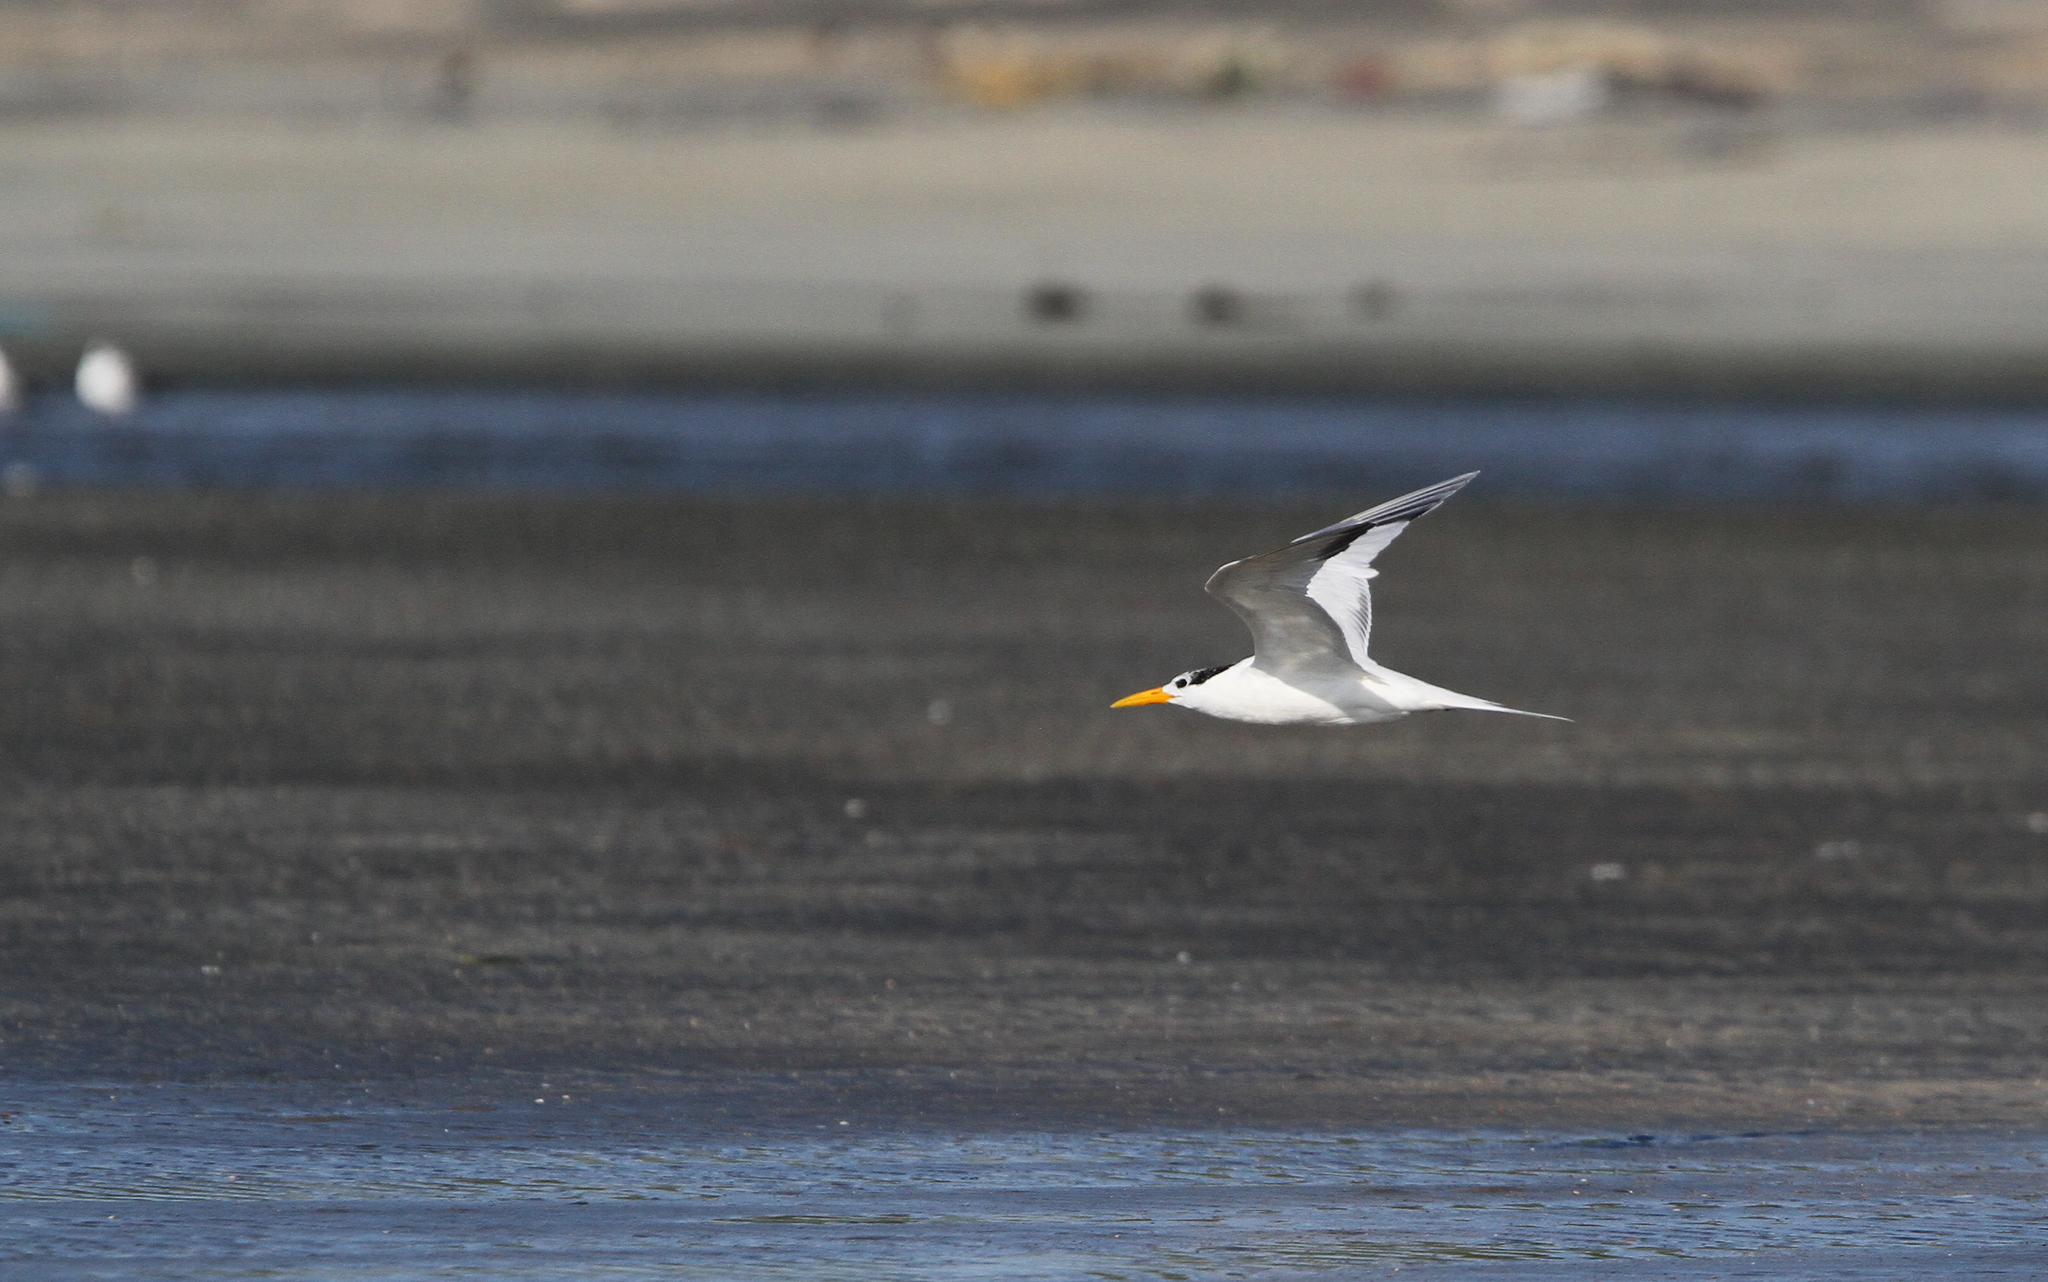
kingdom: Animalia
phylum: Chordata
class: Aves
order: Charadriiformes
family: Laridae
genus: Thalasseus
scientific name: Thalasseus albididorsalis
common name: West african crested tern
